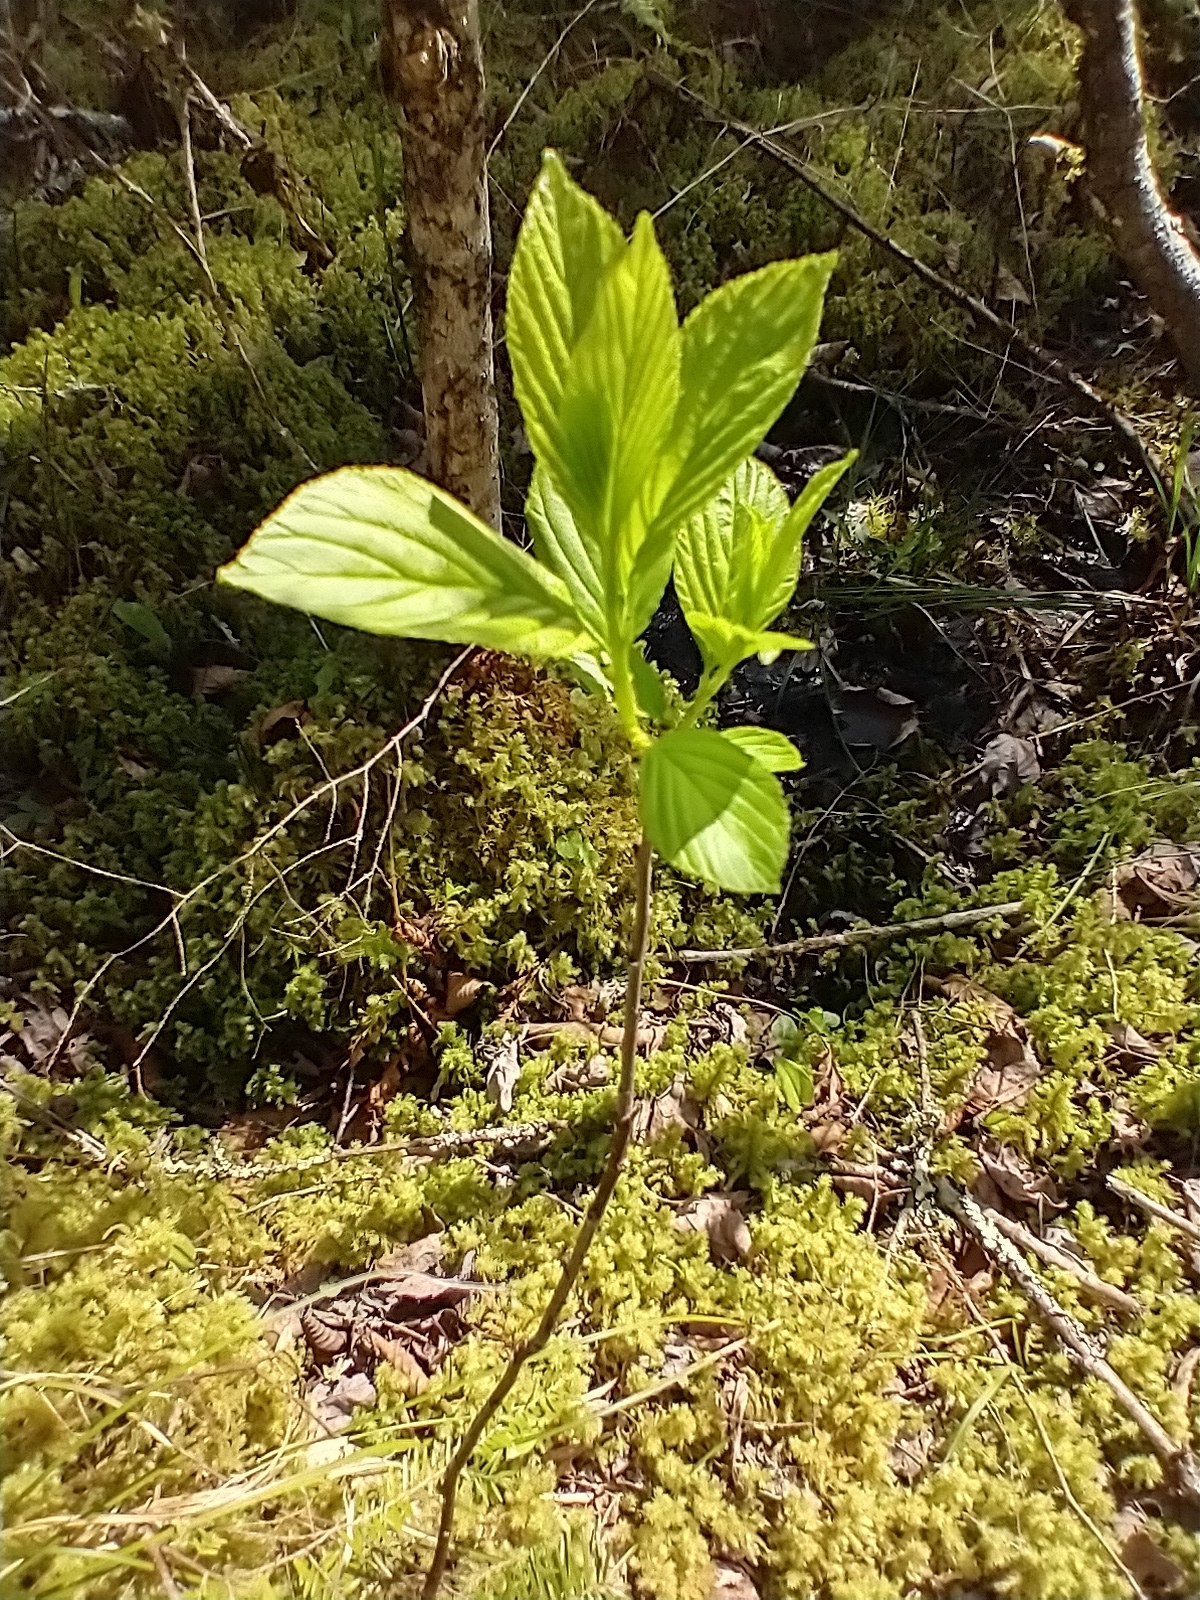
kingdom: Plantae
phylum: Tracheophyta
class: Magnoliopsida
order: Rosales
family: Rhamnaceae
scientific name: Rhamnaceae
